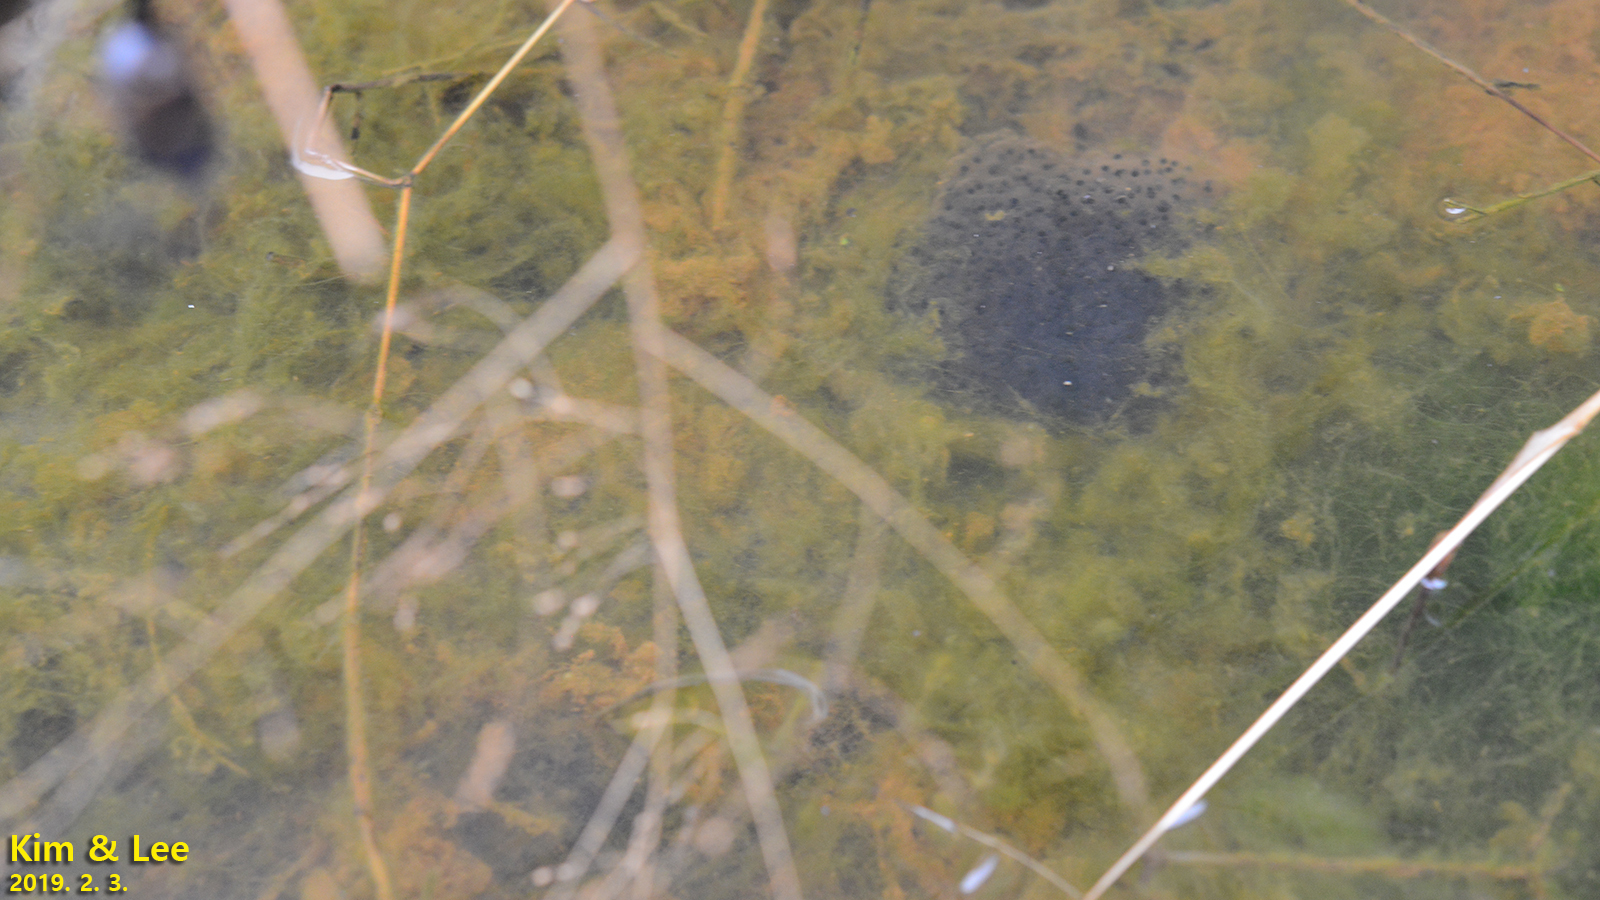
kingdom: Animalia
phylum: Chordata
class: Amphibia
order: Anura
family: Ranidae
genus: Rana
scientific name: Rana uenoi
